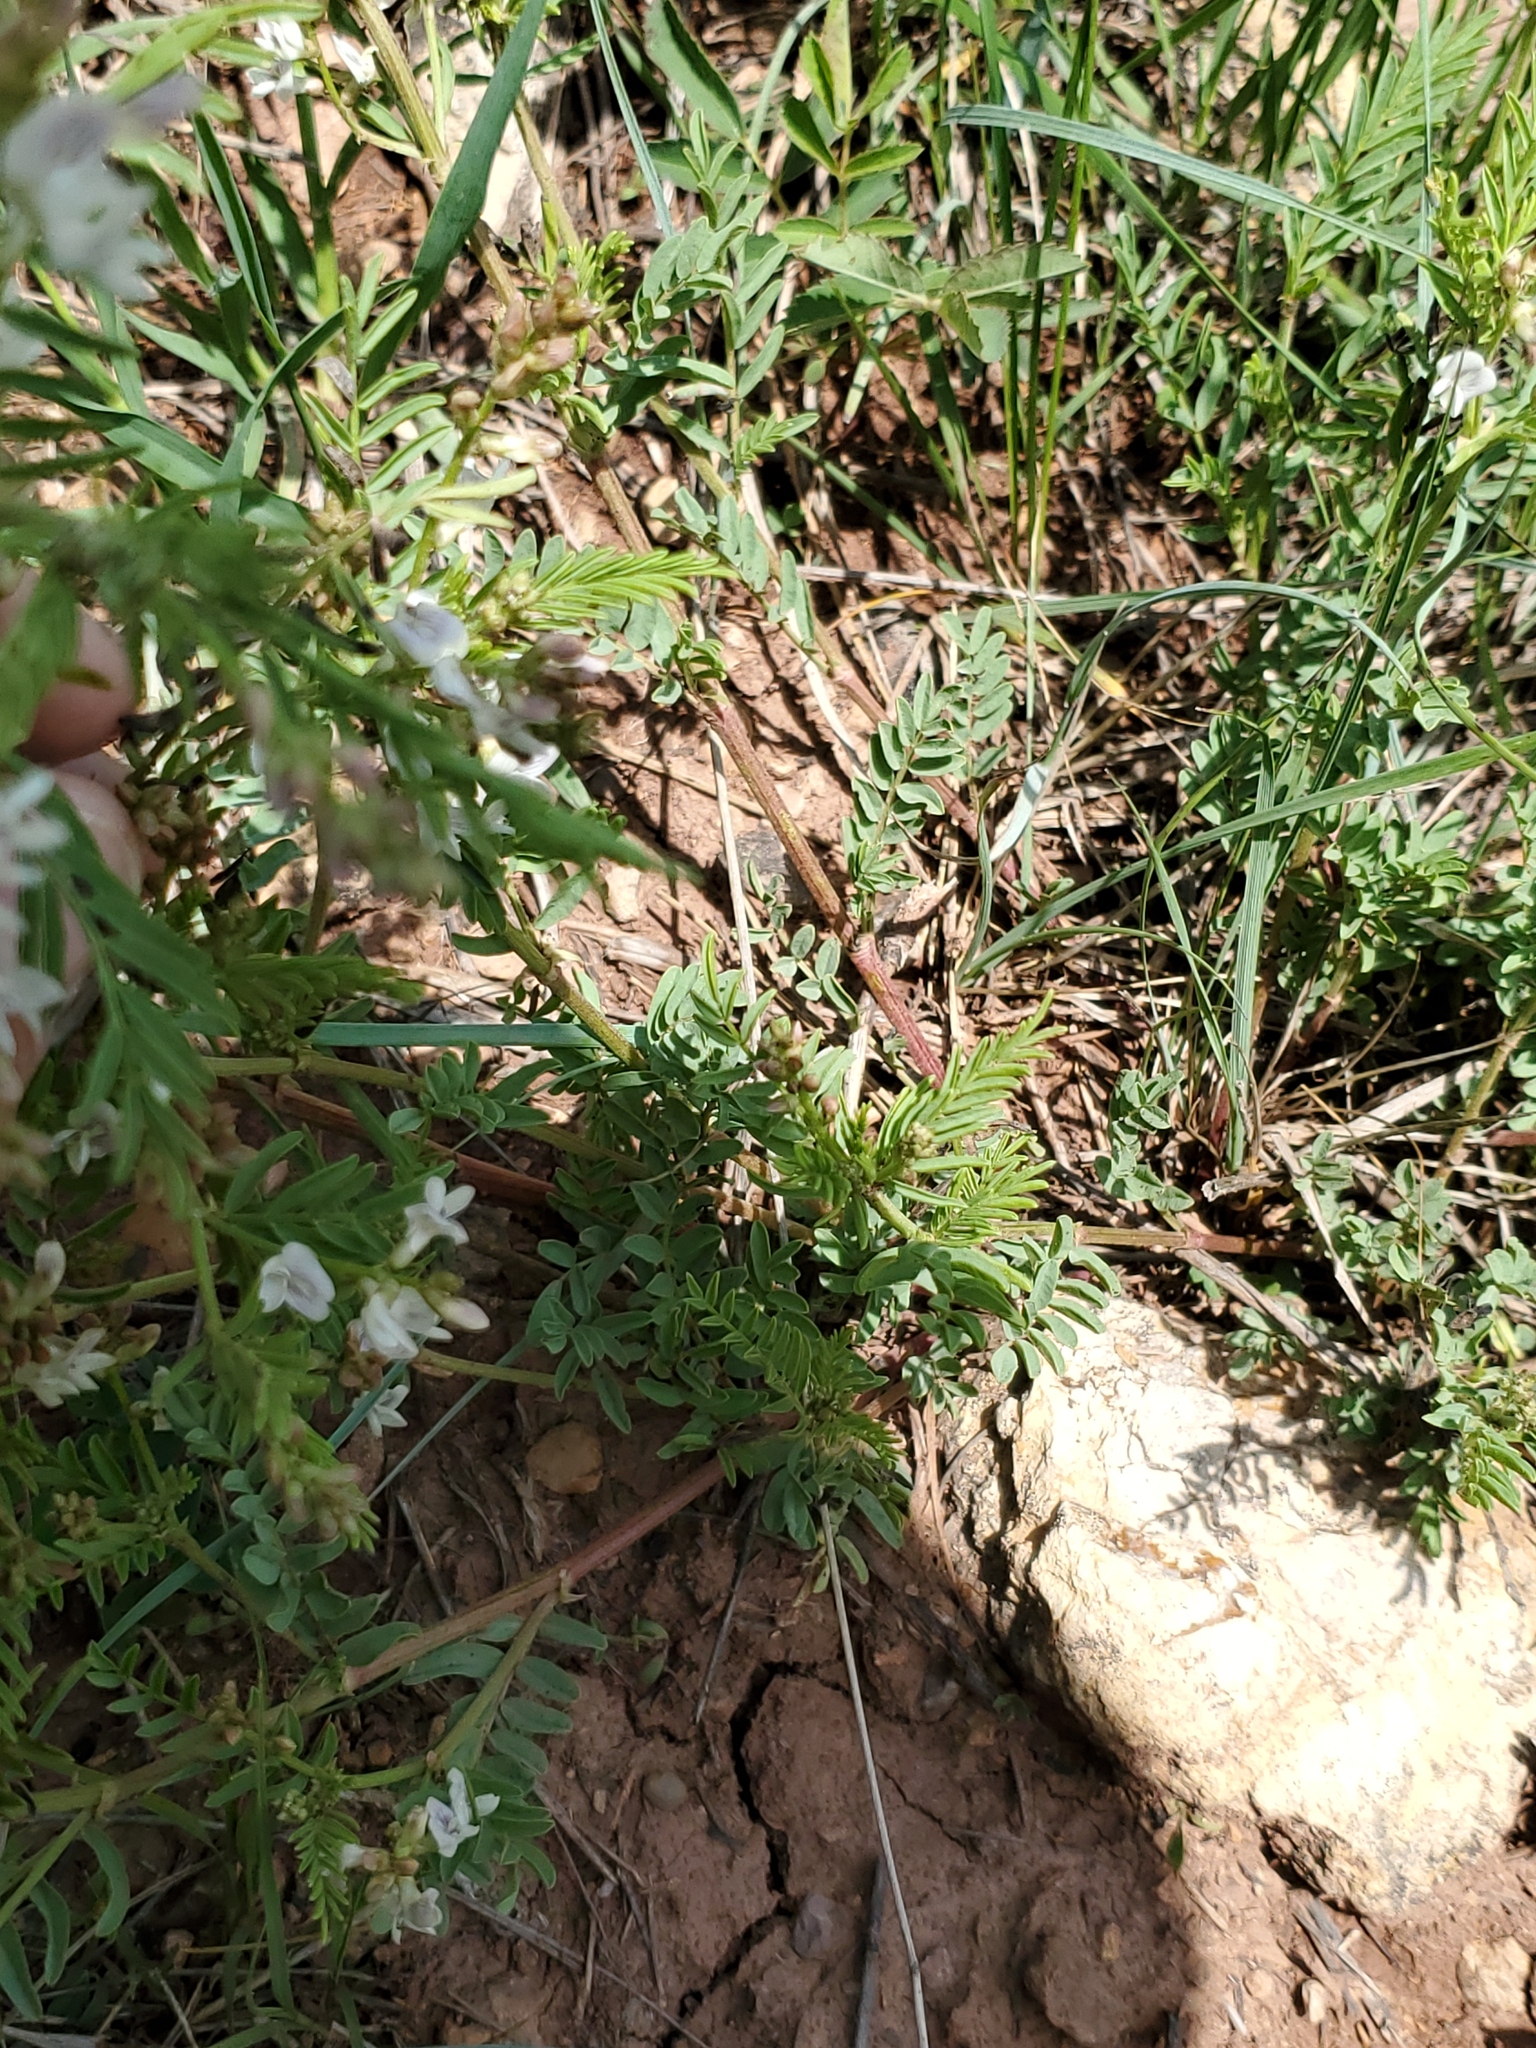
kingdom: Plantae
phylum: Tracheophyta
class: Magnoliopsida
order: Fabales
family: Fabaceae
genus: Astragalus
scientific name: Astragalus tenellus
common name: Pulse milk-vetch
